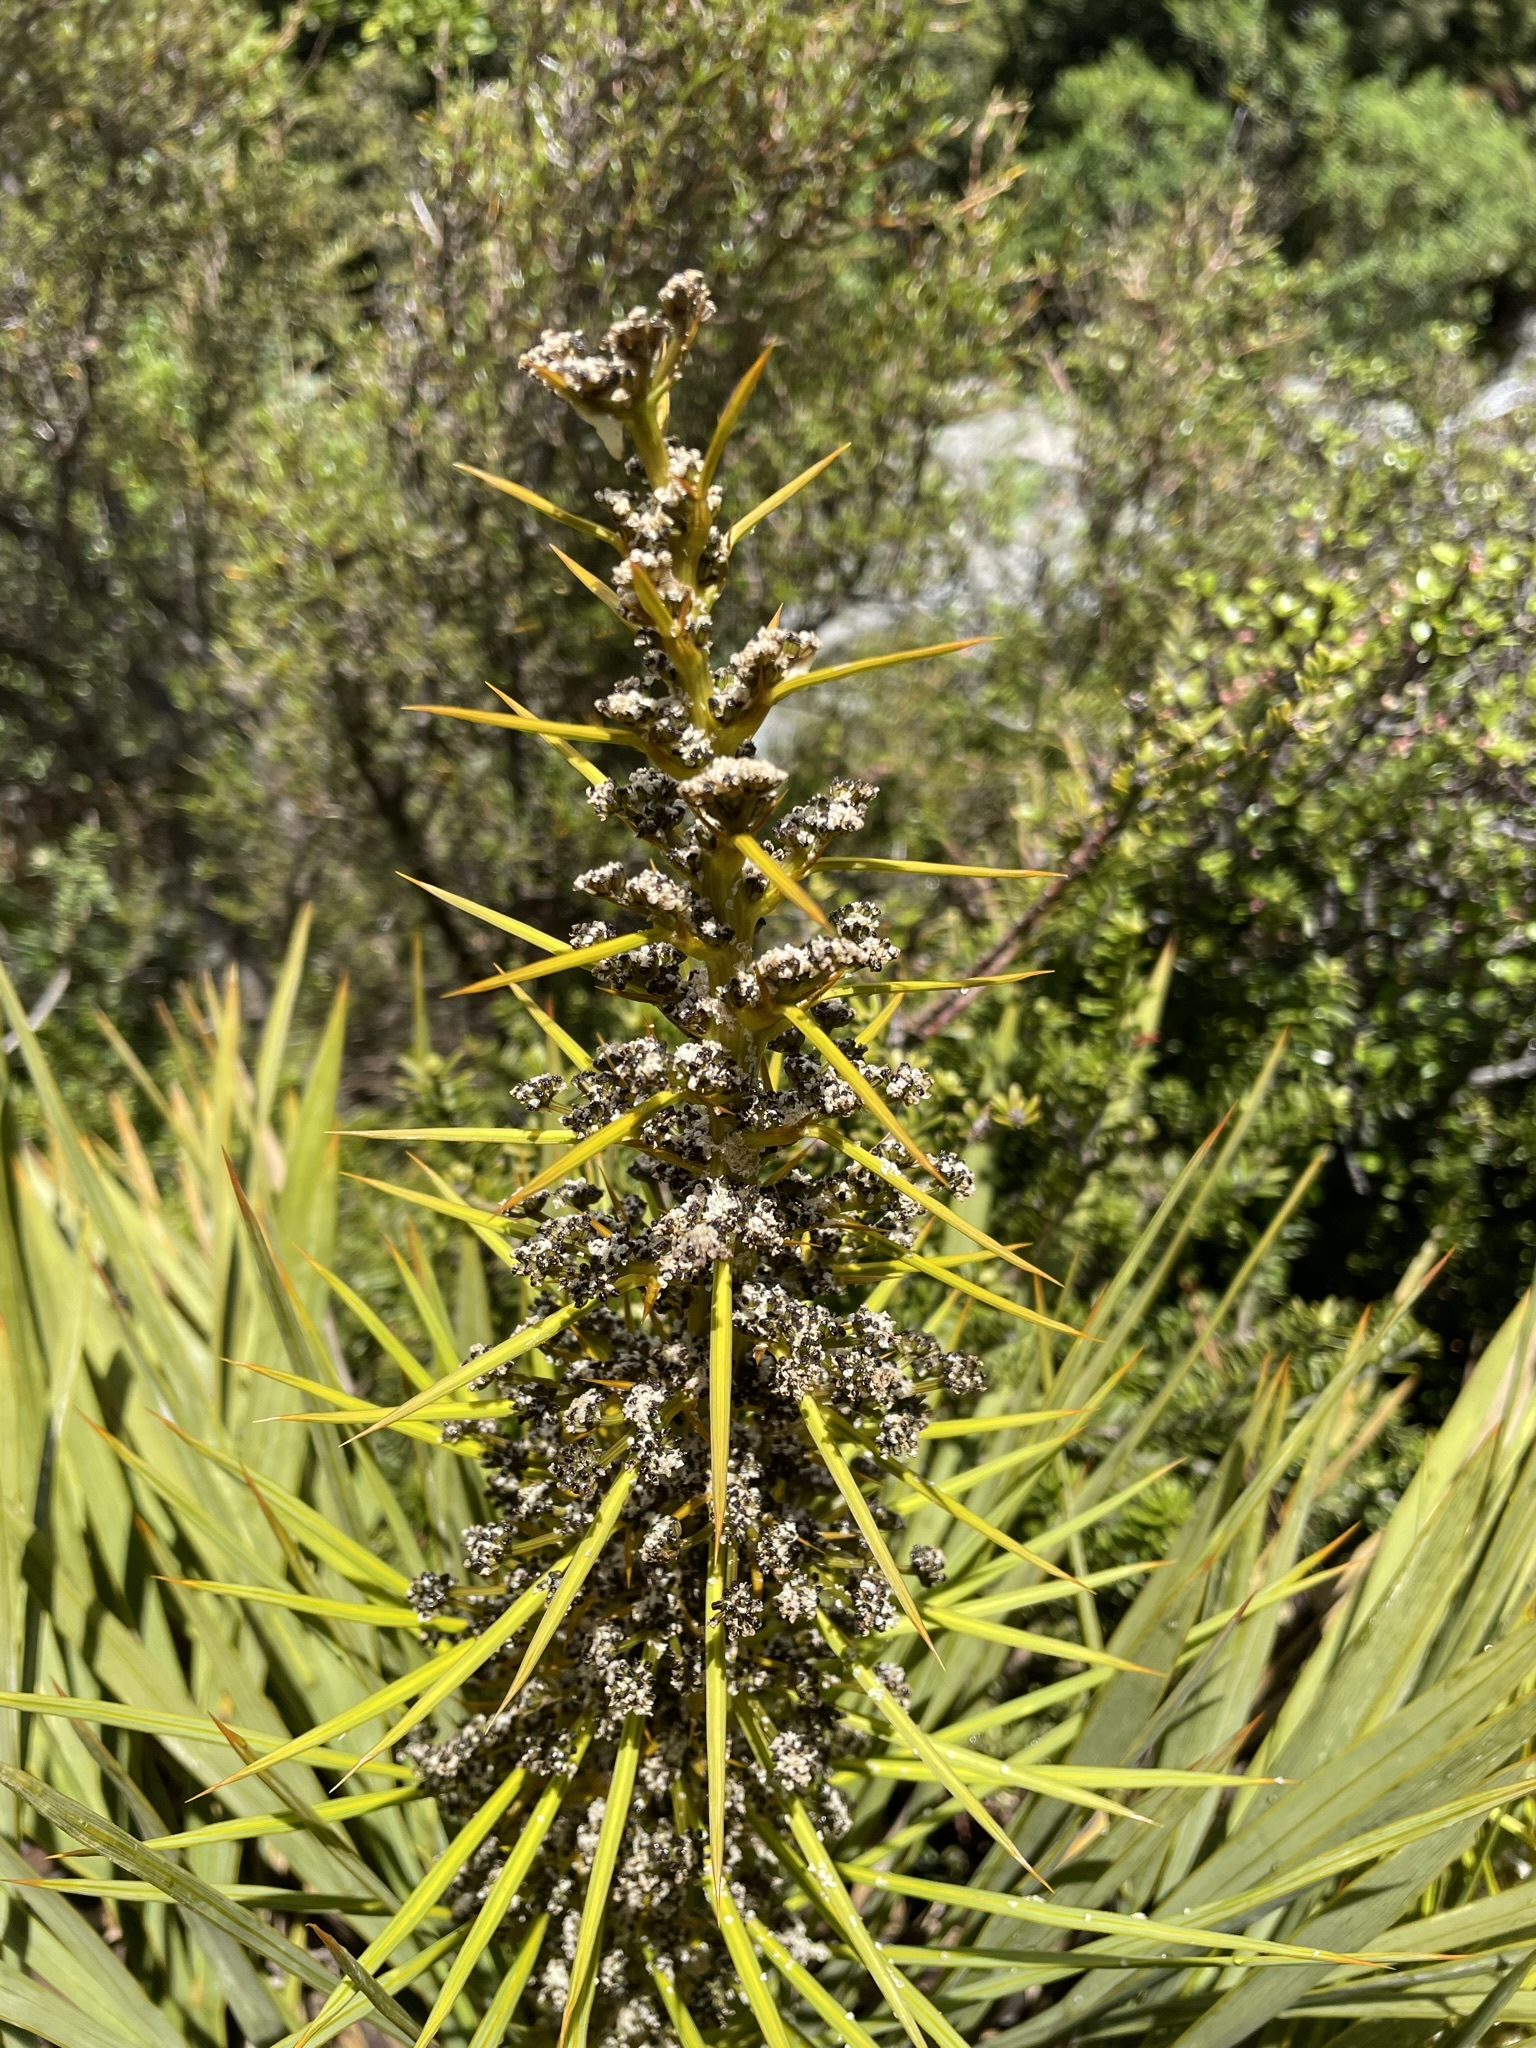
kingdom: Plantae
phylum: Tracheophyta
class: Magnoliopsida
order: Apiales
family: Apiaceae
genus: Aciphylla
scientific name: Aciphylla aurea
